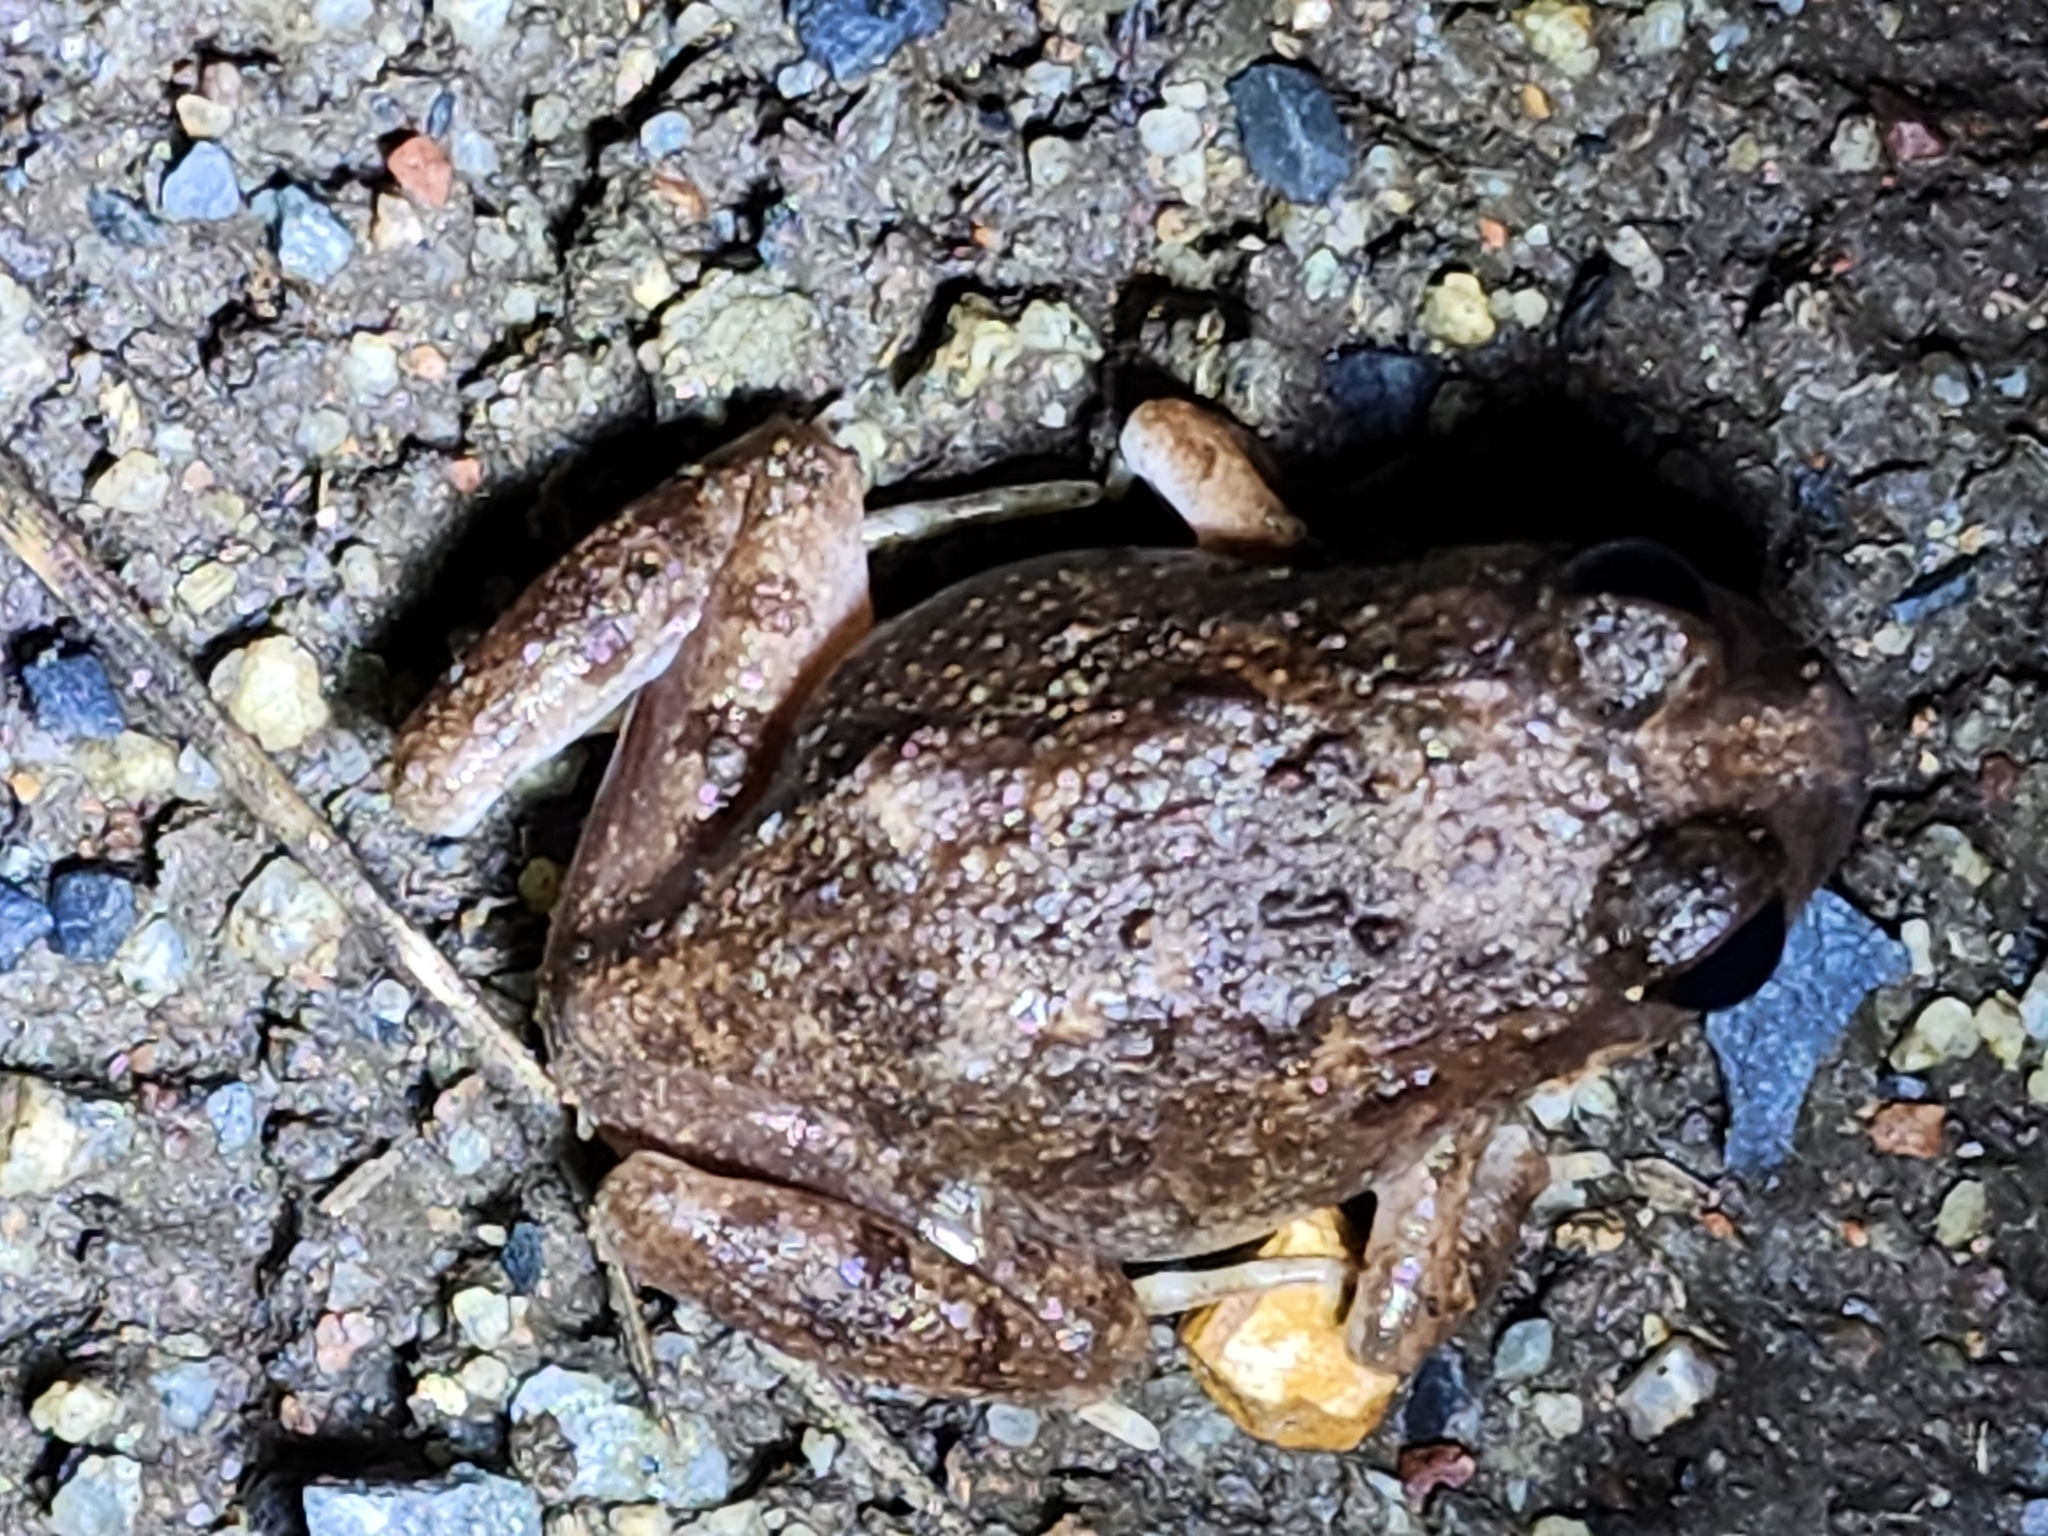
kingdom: Animalia
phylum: Chordata
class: Amphibia
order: Anura
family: Limnodynastidae
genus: Platyplectrum
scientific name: Platyplectrum ornatum
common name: Ornate burrowing frog
